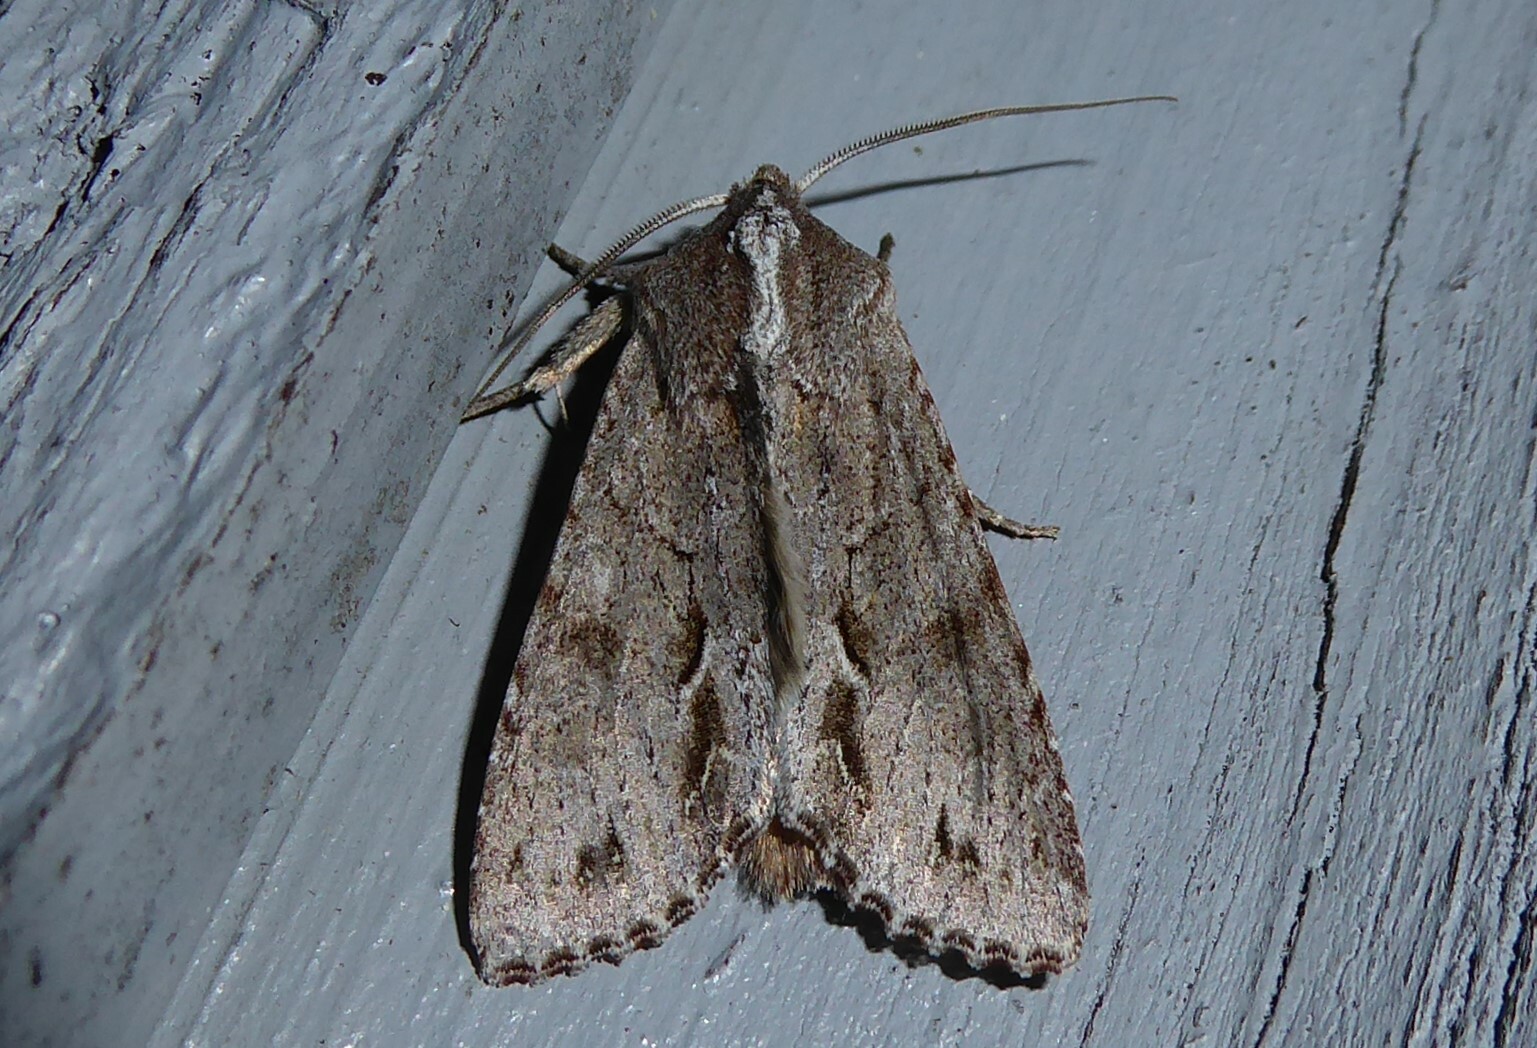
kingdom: Animalia
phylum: Arthropoda
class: Insecta
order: Lepidoptera
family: Noctuidae
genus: Ichneutica
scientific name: Ichneutica
